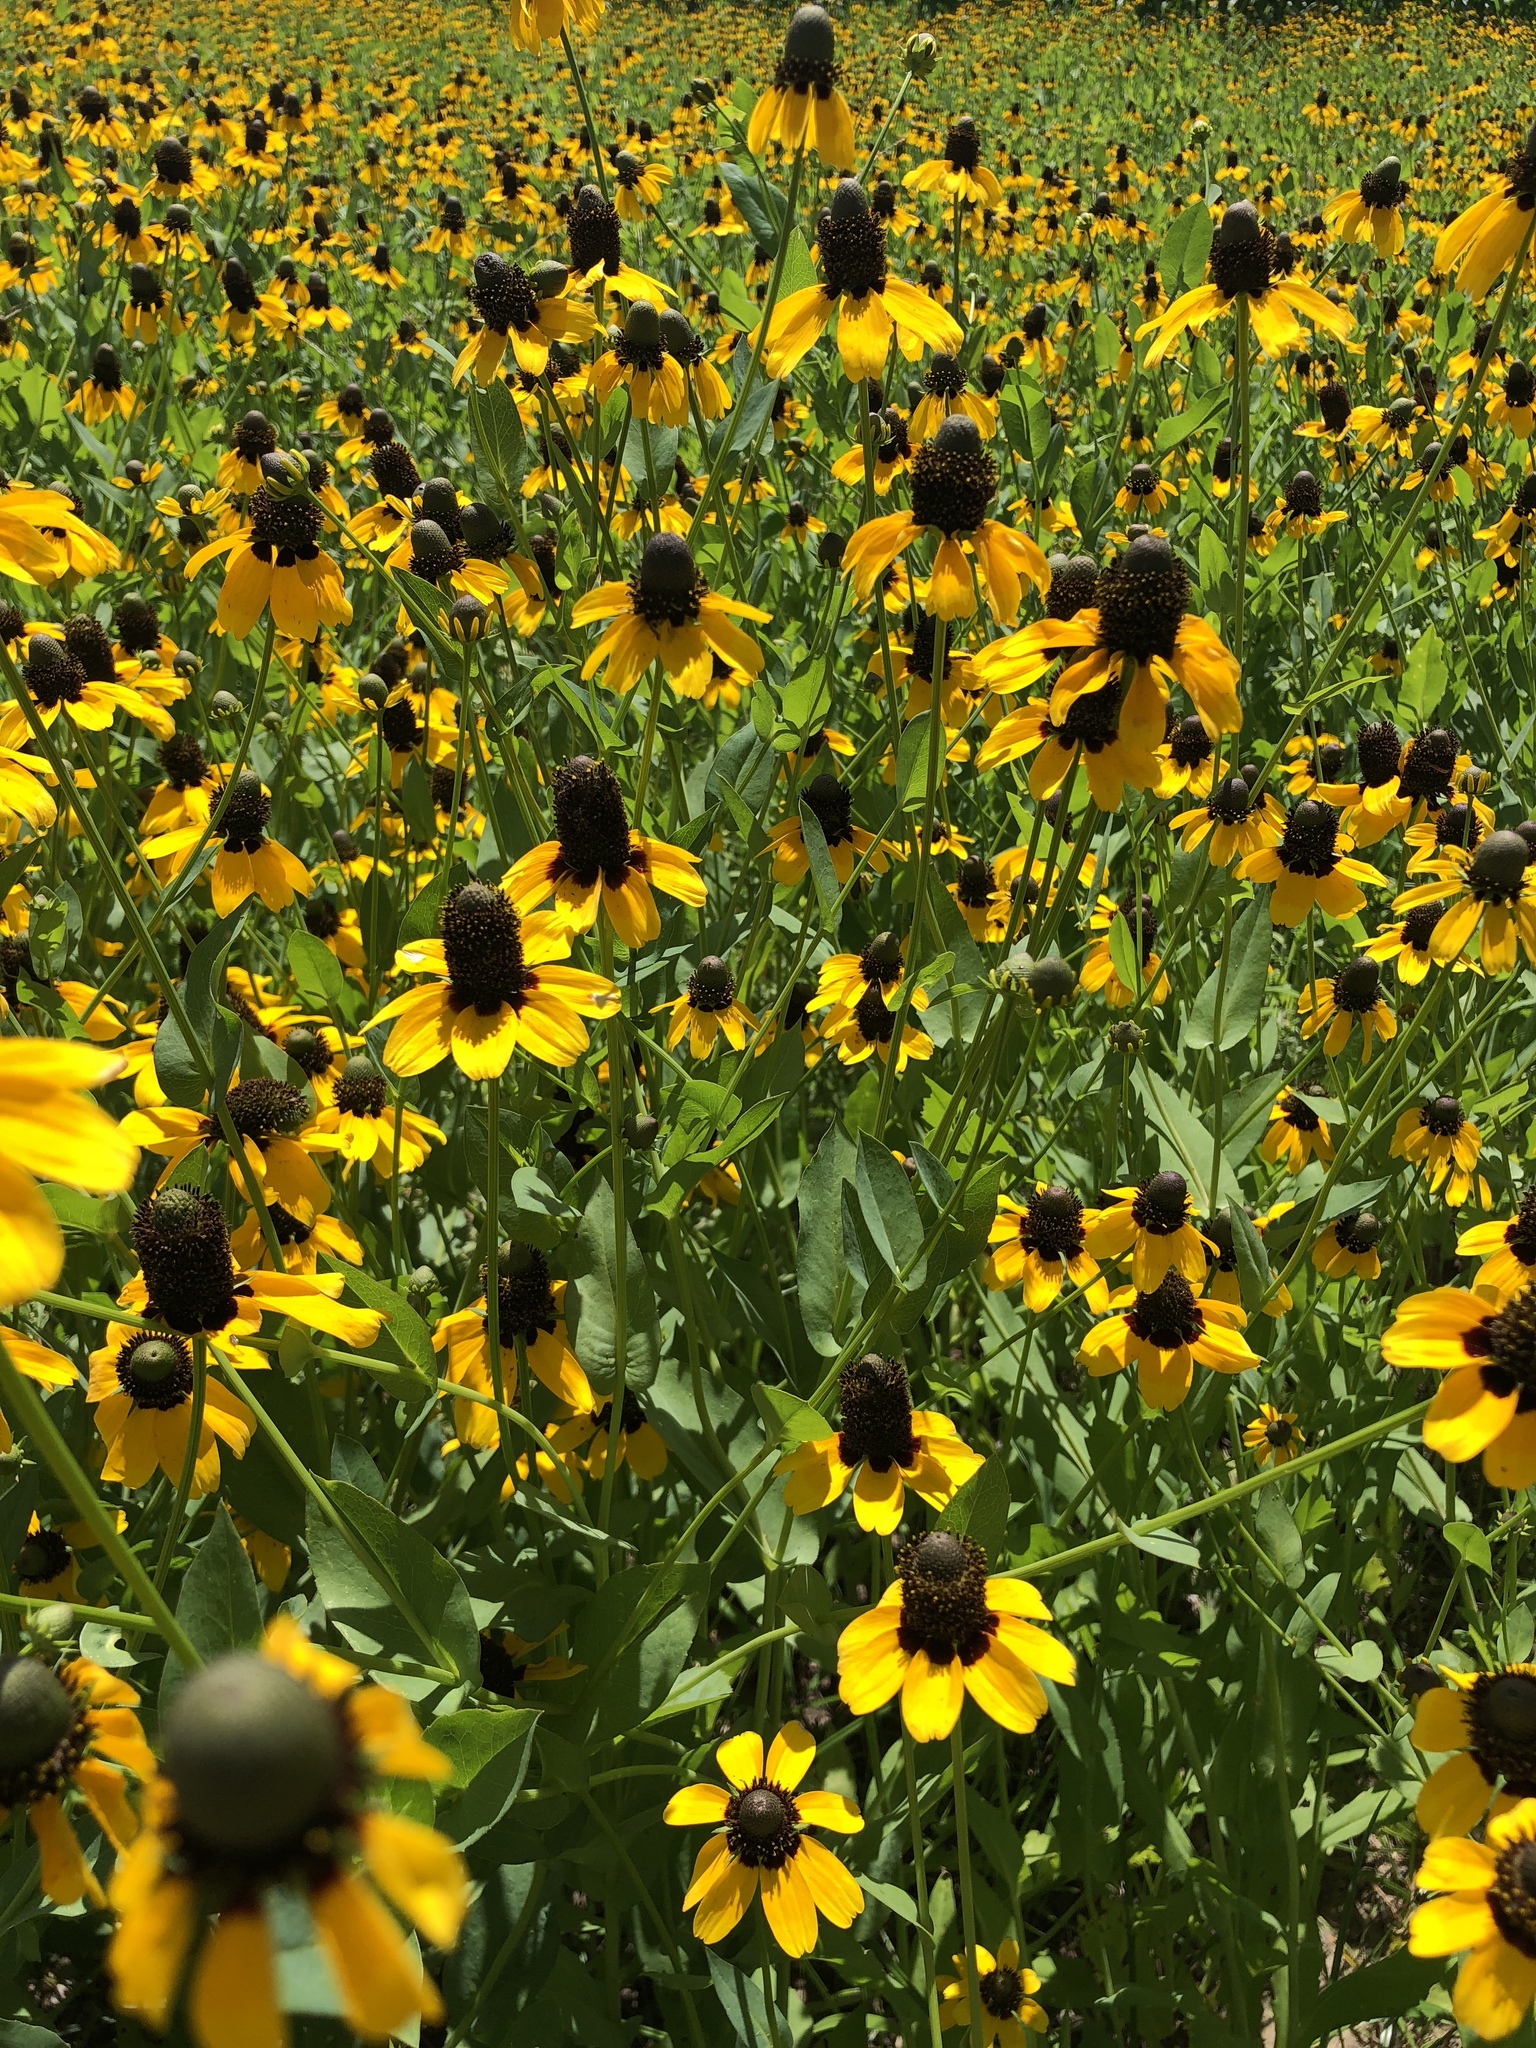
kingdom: Plantae
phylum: Tracheophyta
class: Magnoliopsida
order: Asterales
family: Asteraceae
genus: Rudbeckia
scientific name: Rudbeckia hirta
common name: Black-eyed-susan
